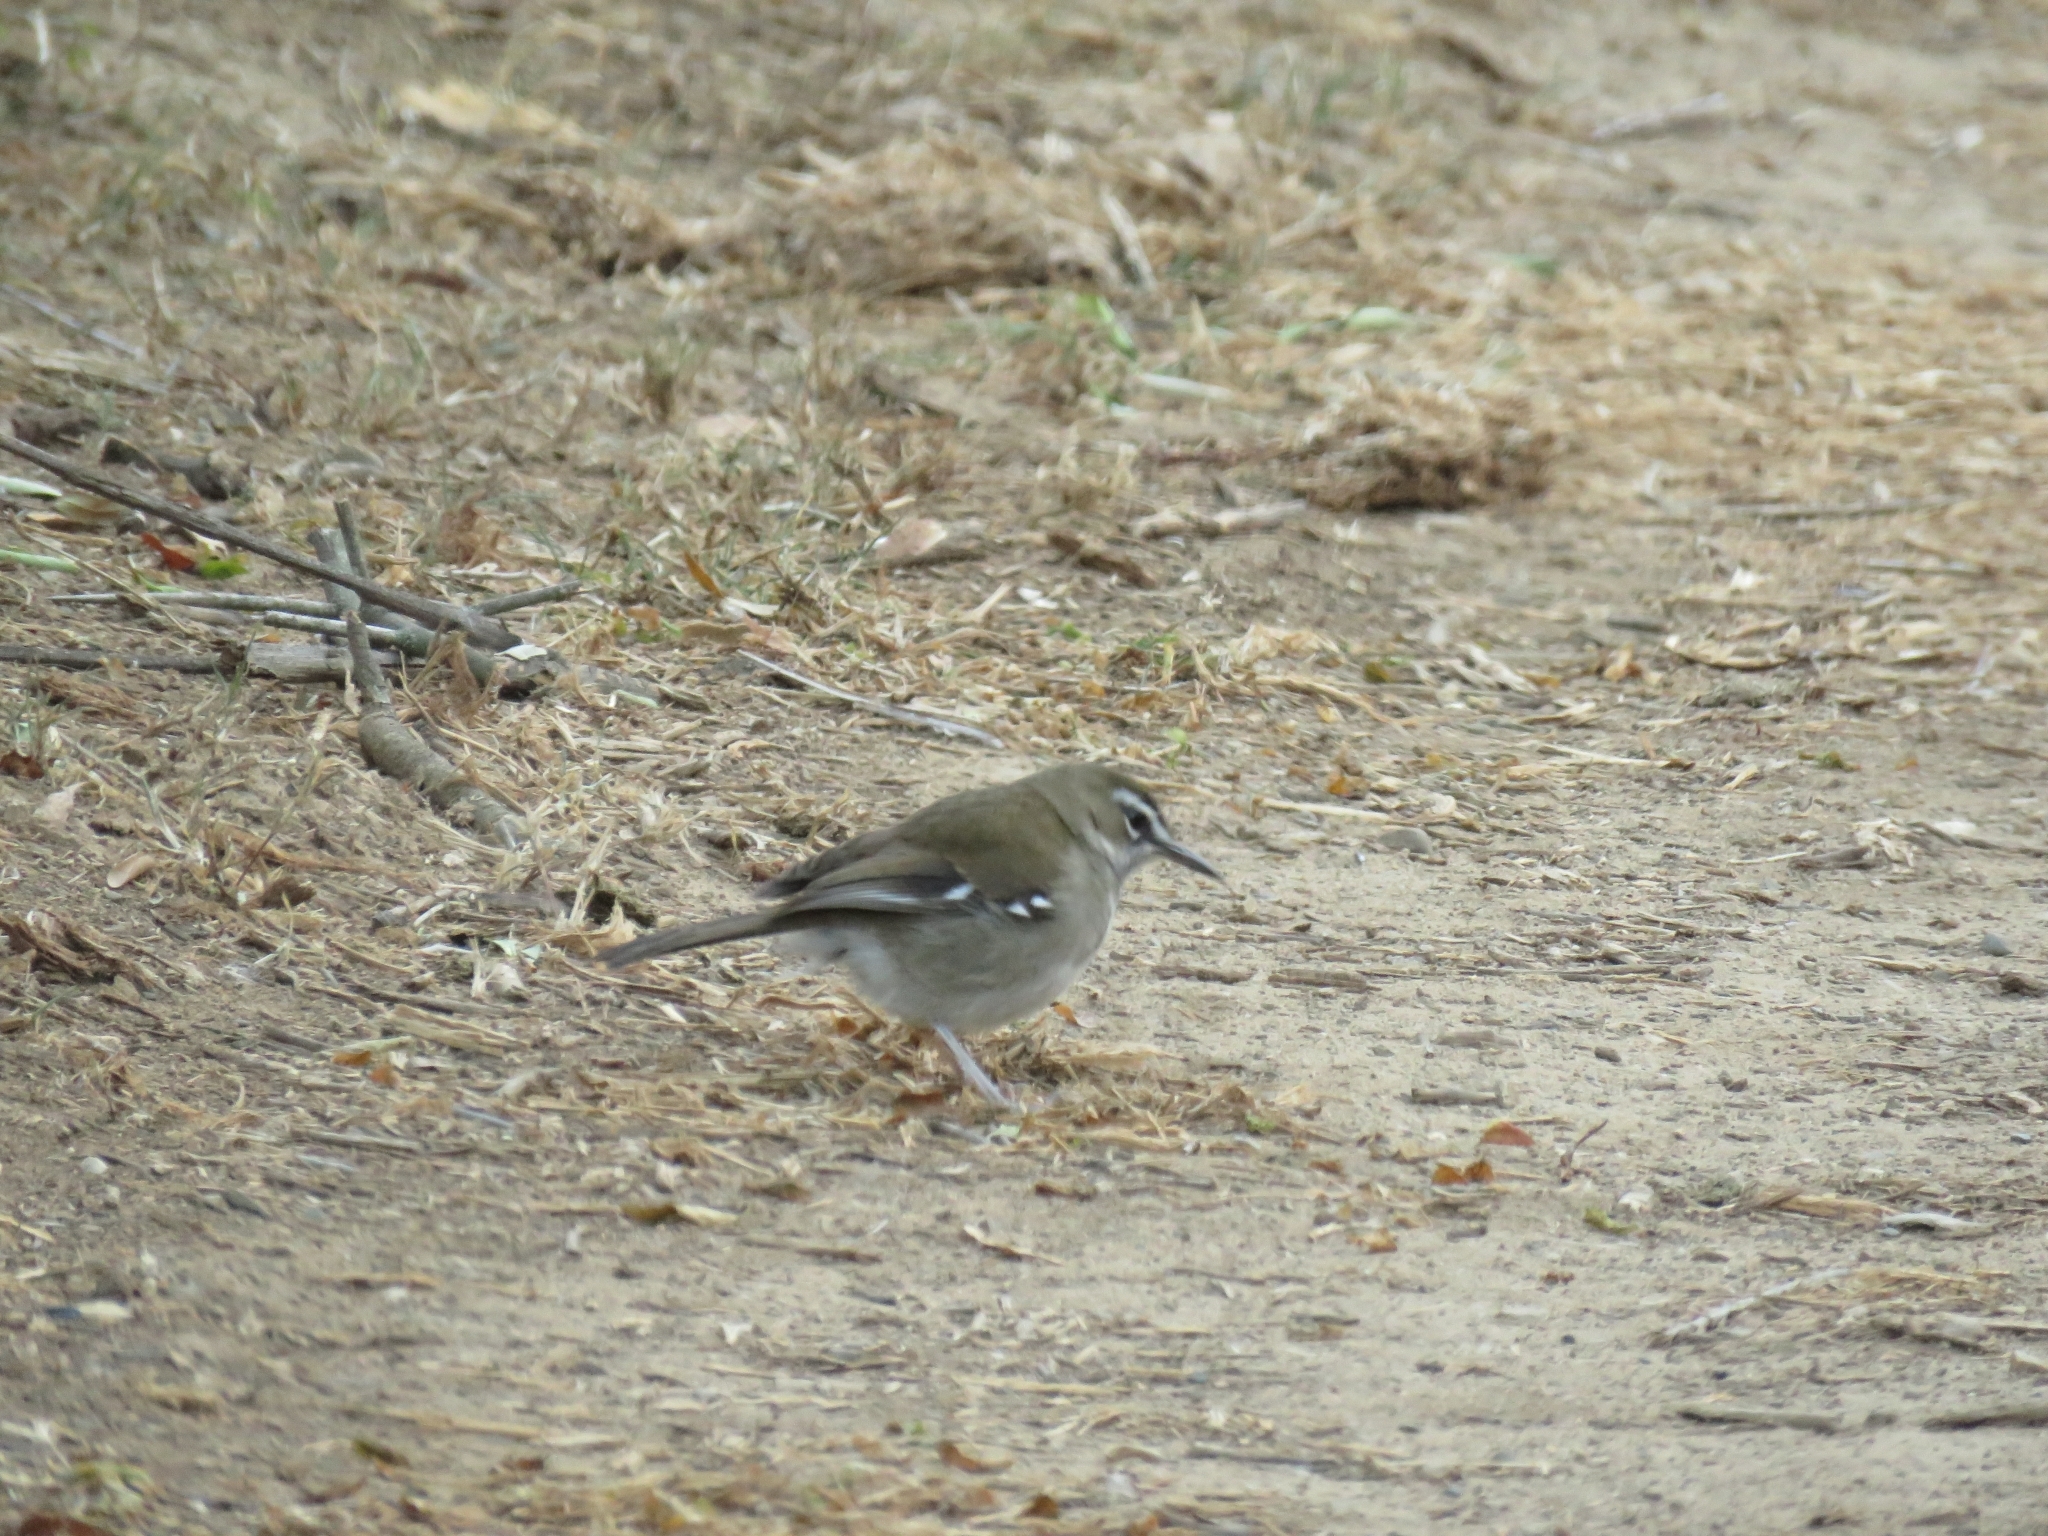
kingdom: Animalia
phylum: Chordata
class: Aves
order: Passeriformes
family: Muscicapidae
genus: Erythropygia
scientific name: Erythropygia signata
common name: Brown scrub robin
